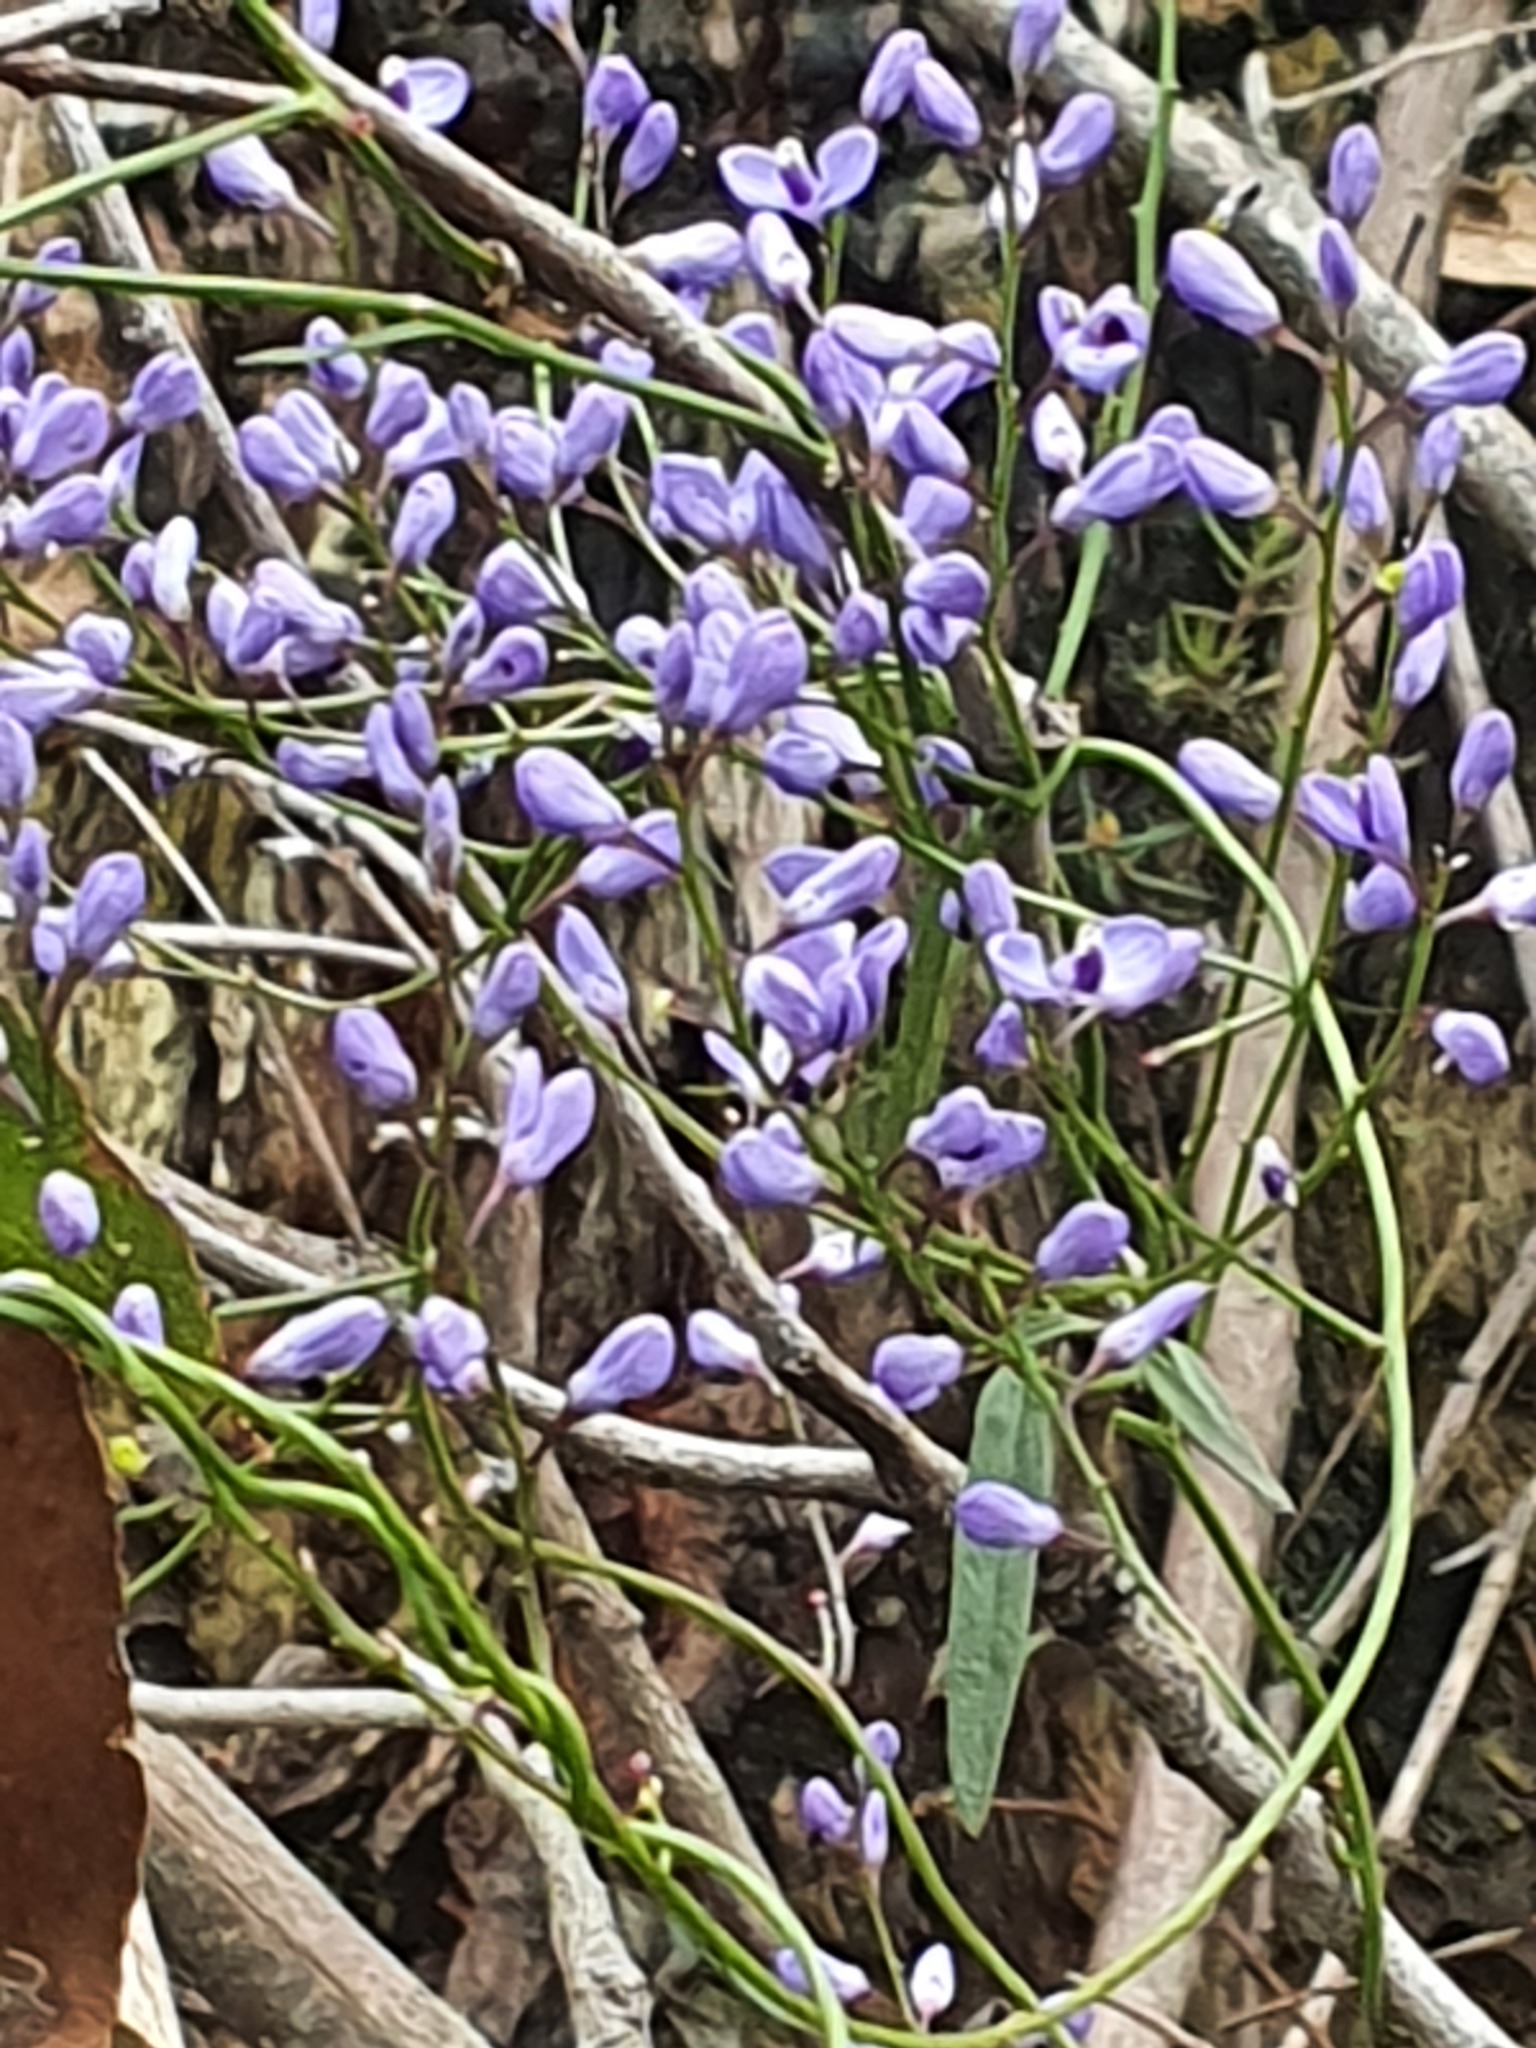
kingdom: Plantae
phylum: Tracheophyta
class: Magnoliopsida
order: Fabales
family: Polygalaceae
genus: Comesperma
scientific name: Comesperma volubile
